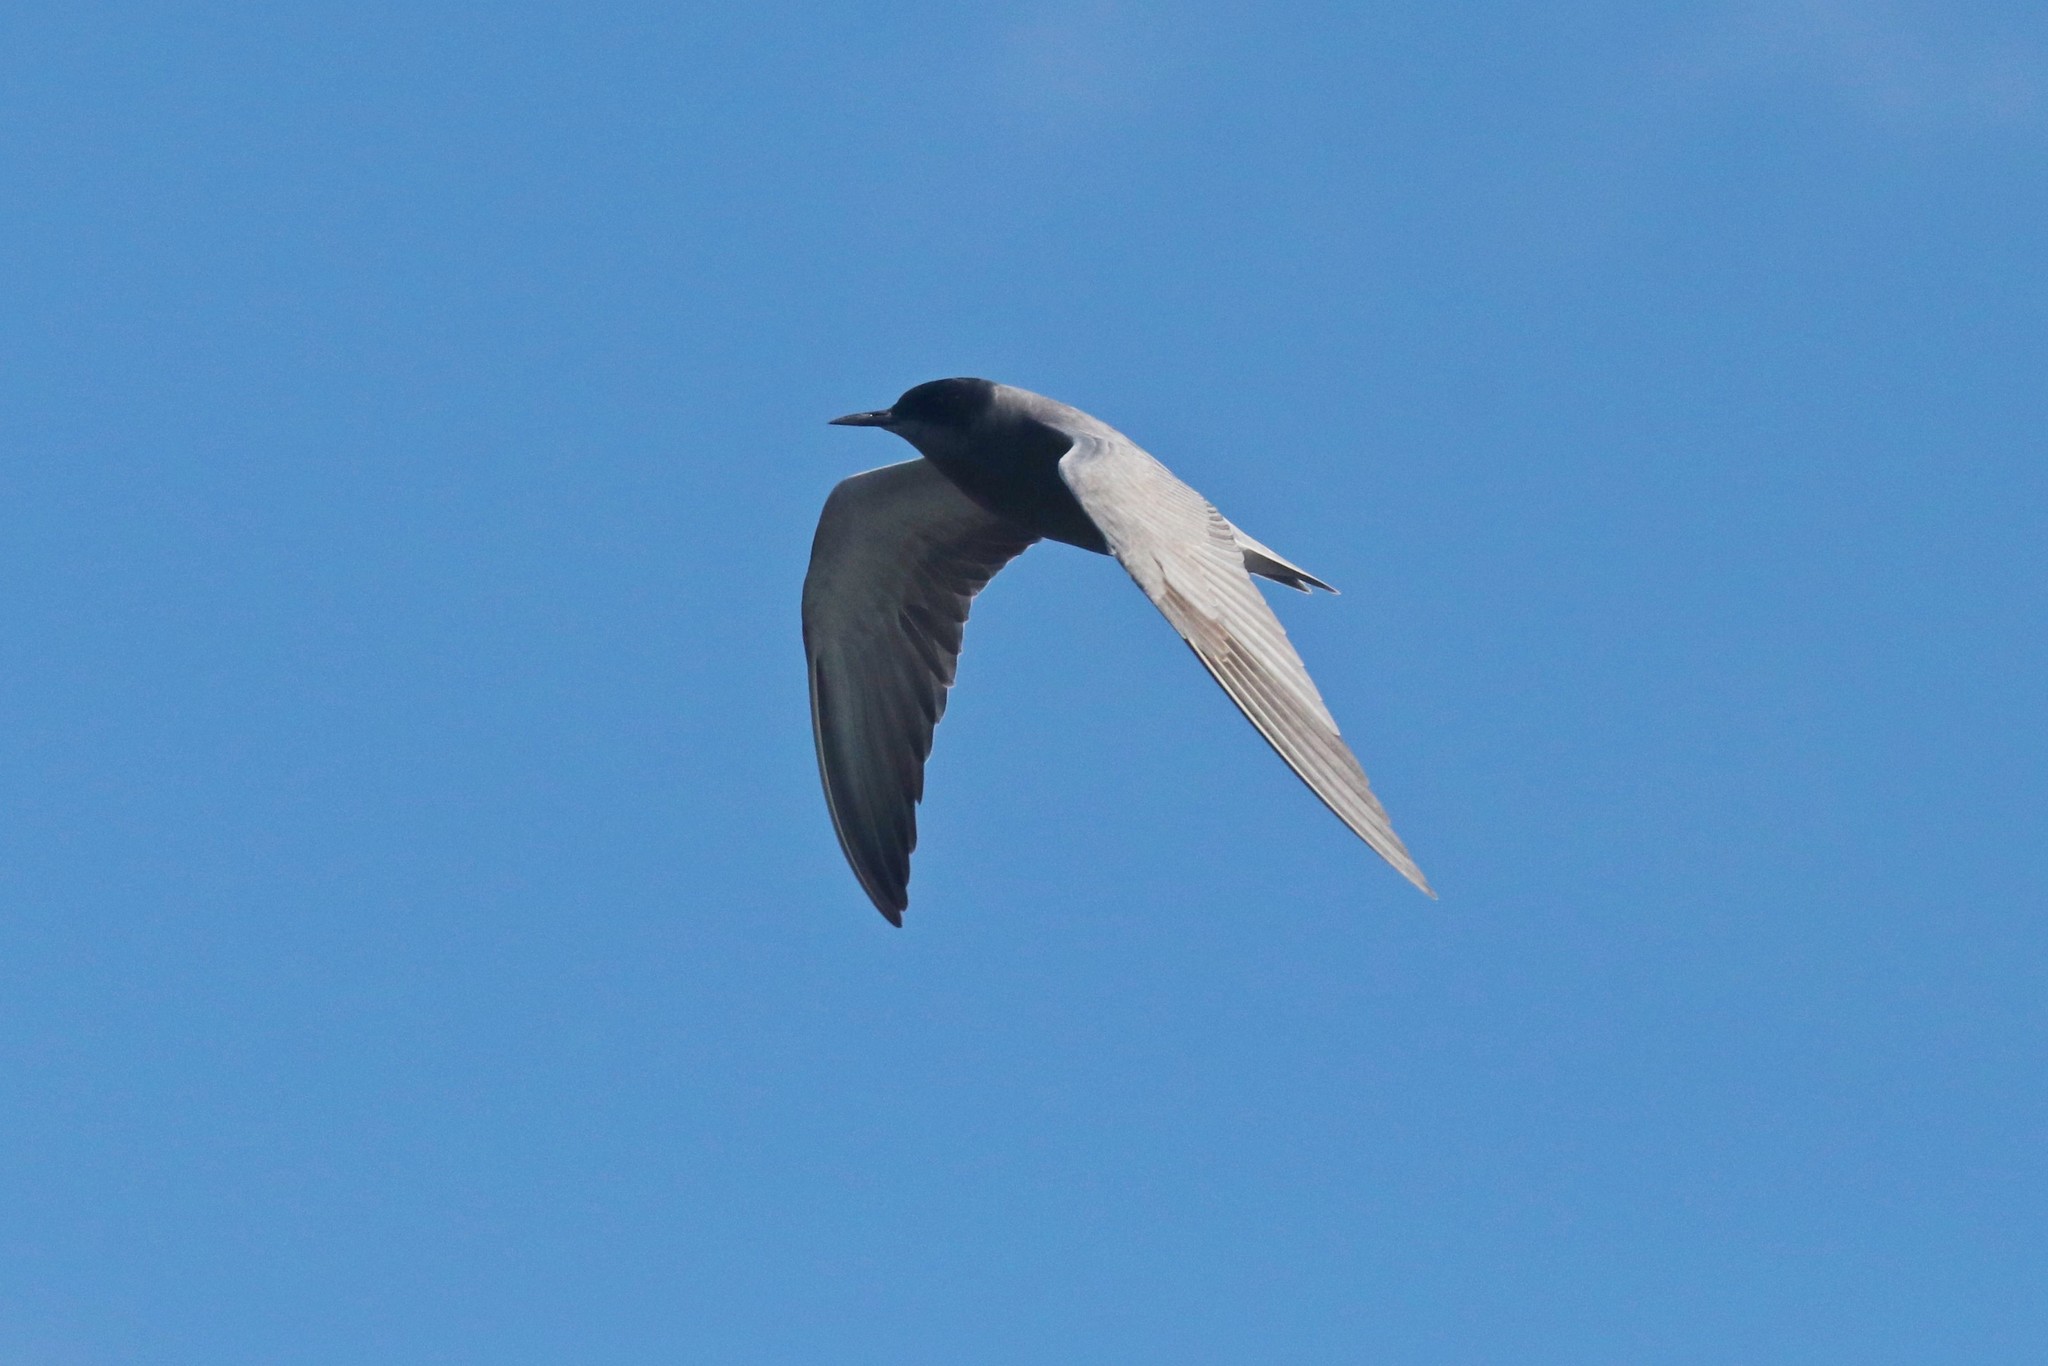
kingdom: Animalia
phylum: Chordata
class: Aves
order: Charadriiformes
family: Laridae
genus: Chlidonias
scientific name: Chlidonias niger
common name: Black tern
